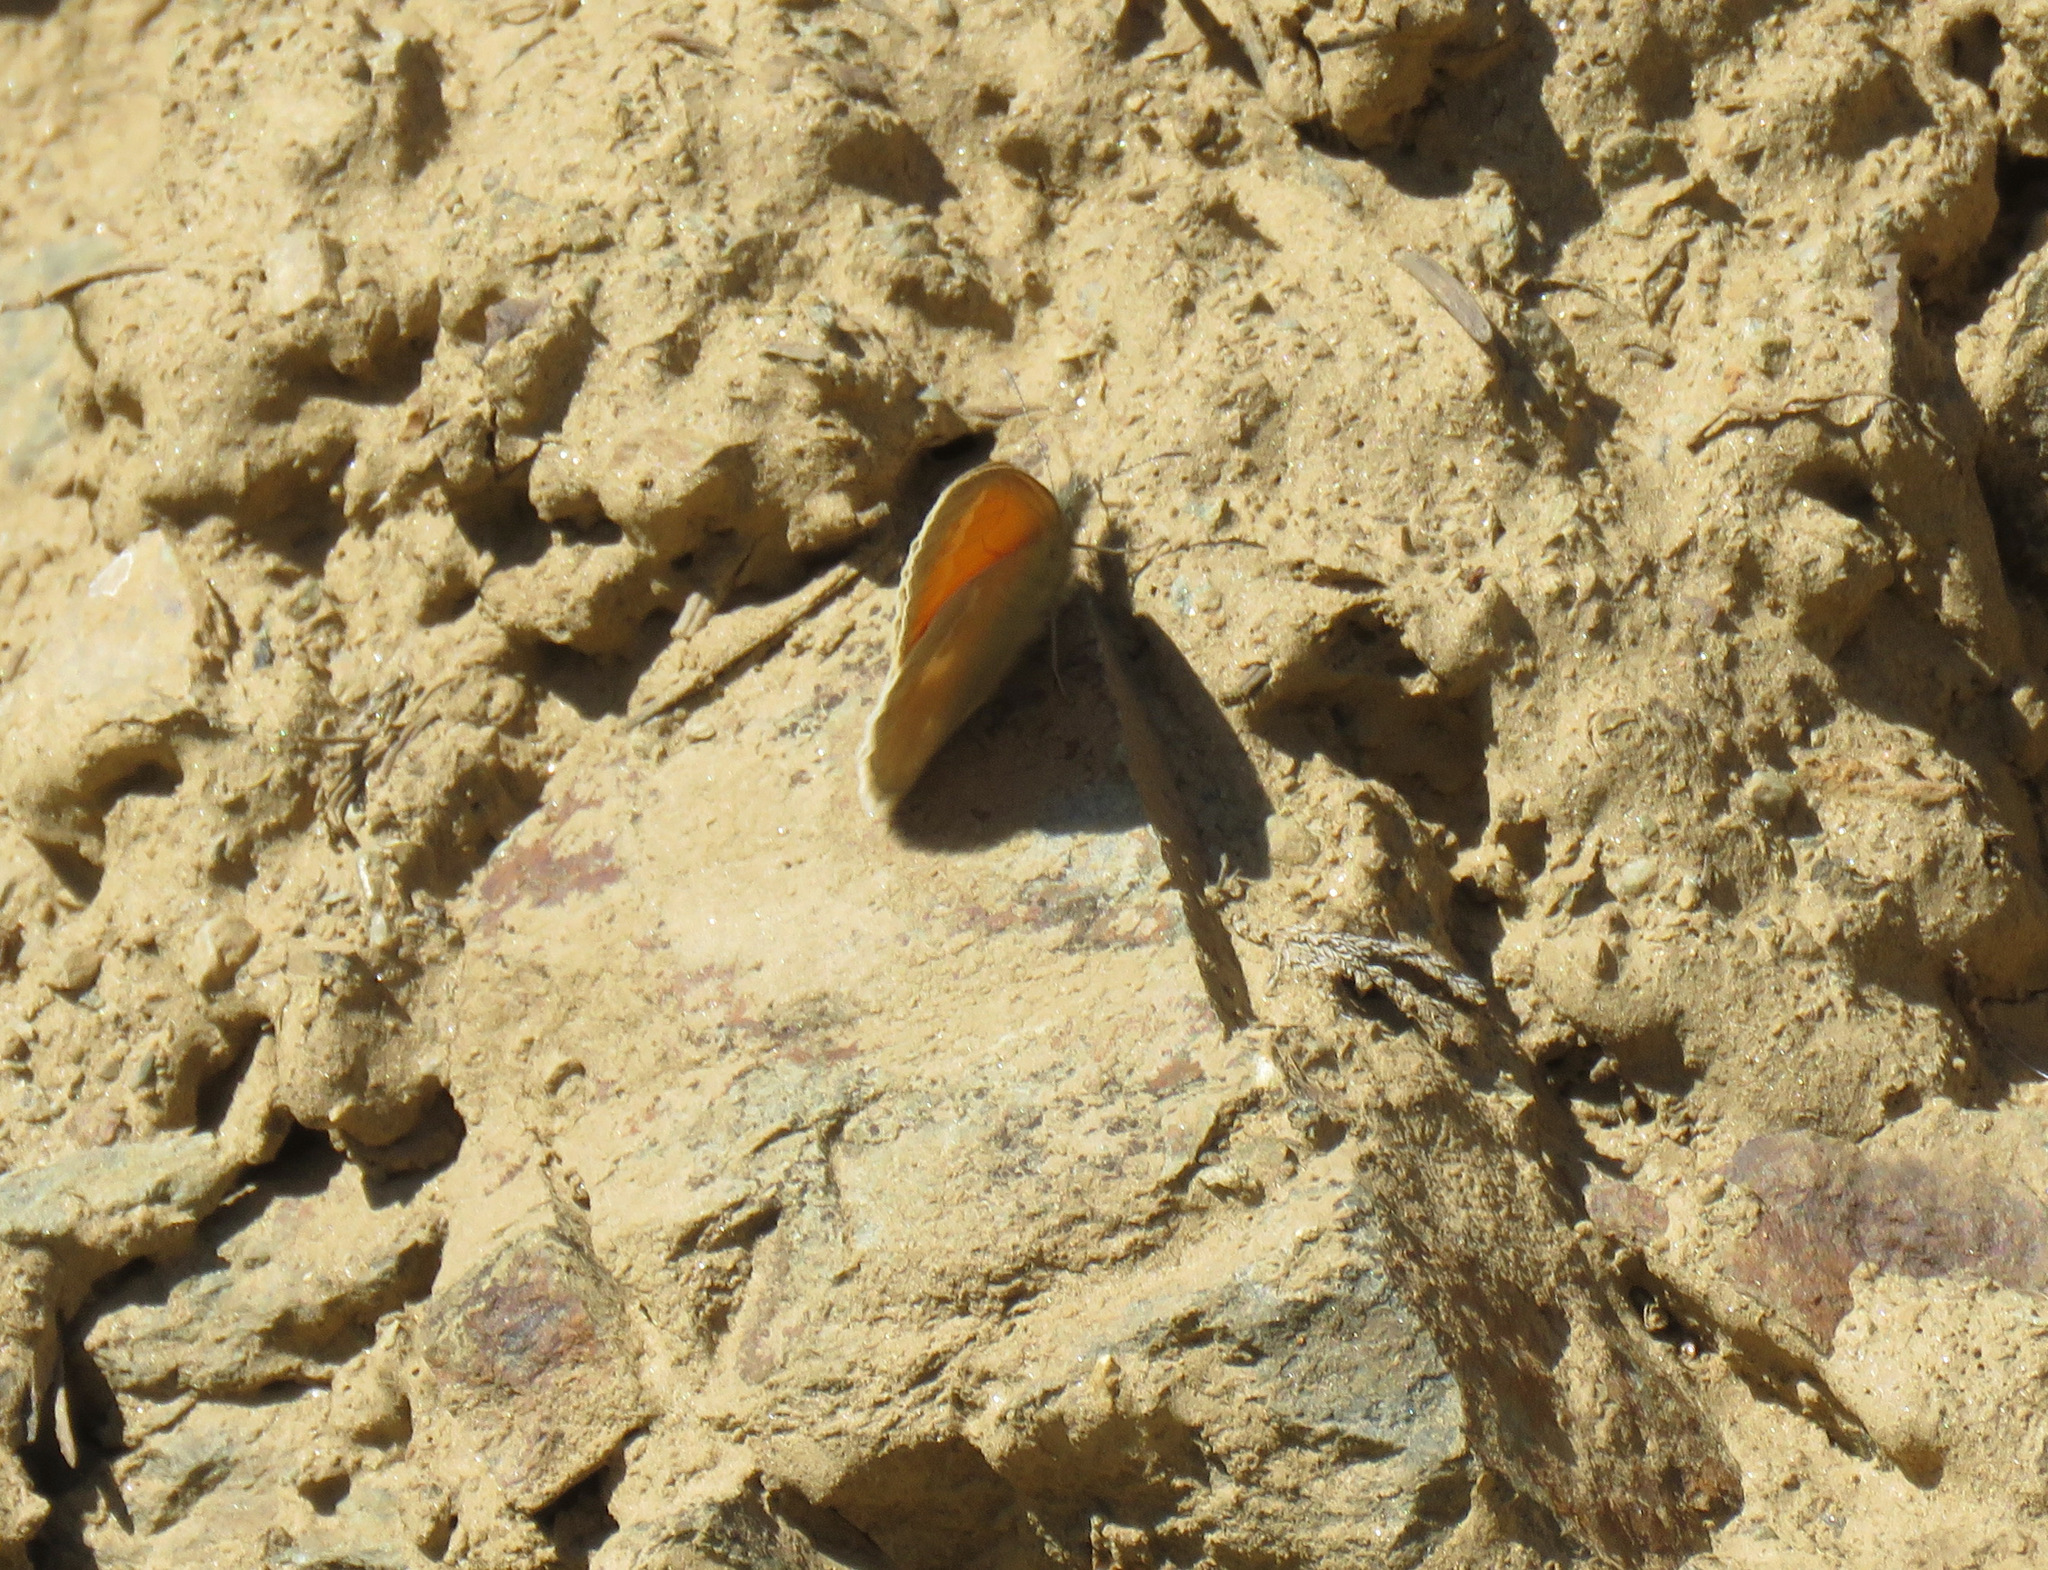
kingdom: Animalia
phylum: Arthropoda
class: Insecta
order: Lepidoptera
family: Nymphalidae
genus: Coenonympha
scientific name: Coenonympha california
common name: Common ringlet
